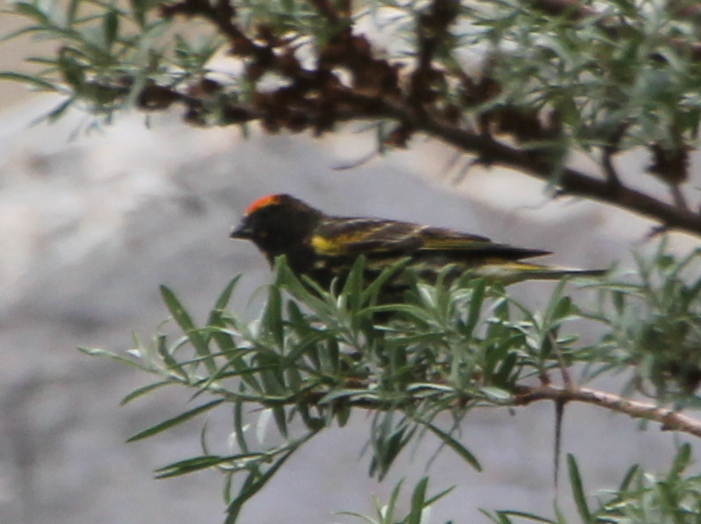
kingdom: Animalia
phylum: Chordata
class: Aves
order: Passeriformes
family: Fringillidae
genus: Serinus
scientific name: Serinus pusillus
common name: Red-fronted serin
